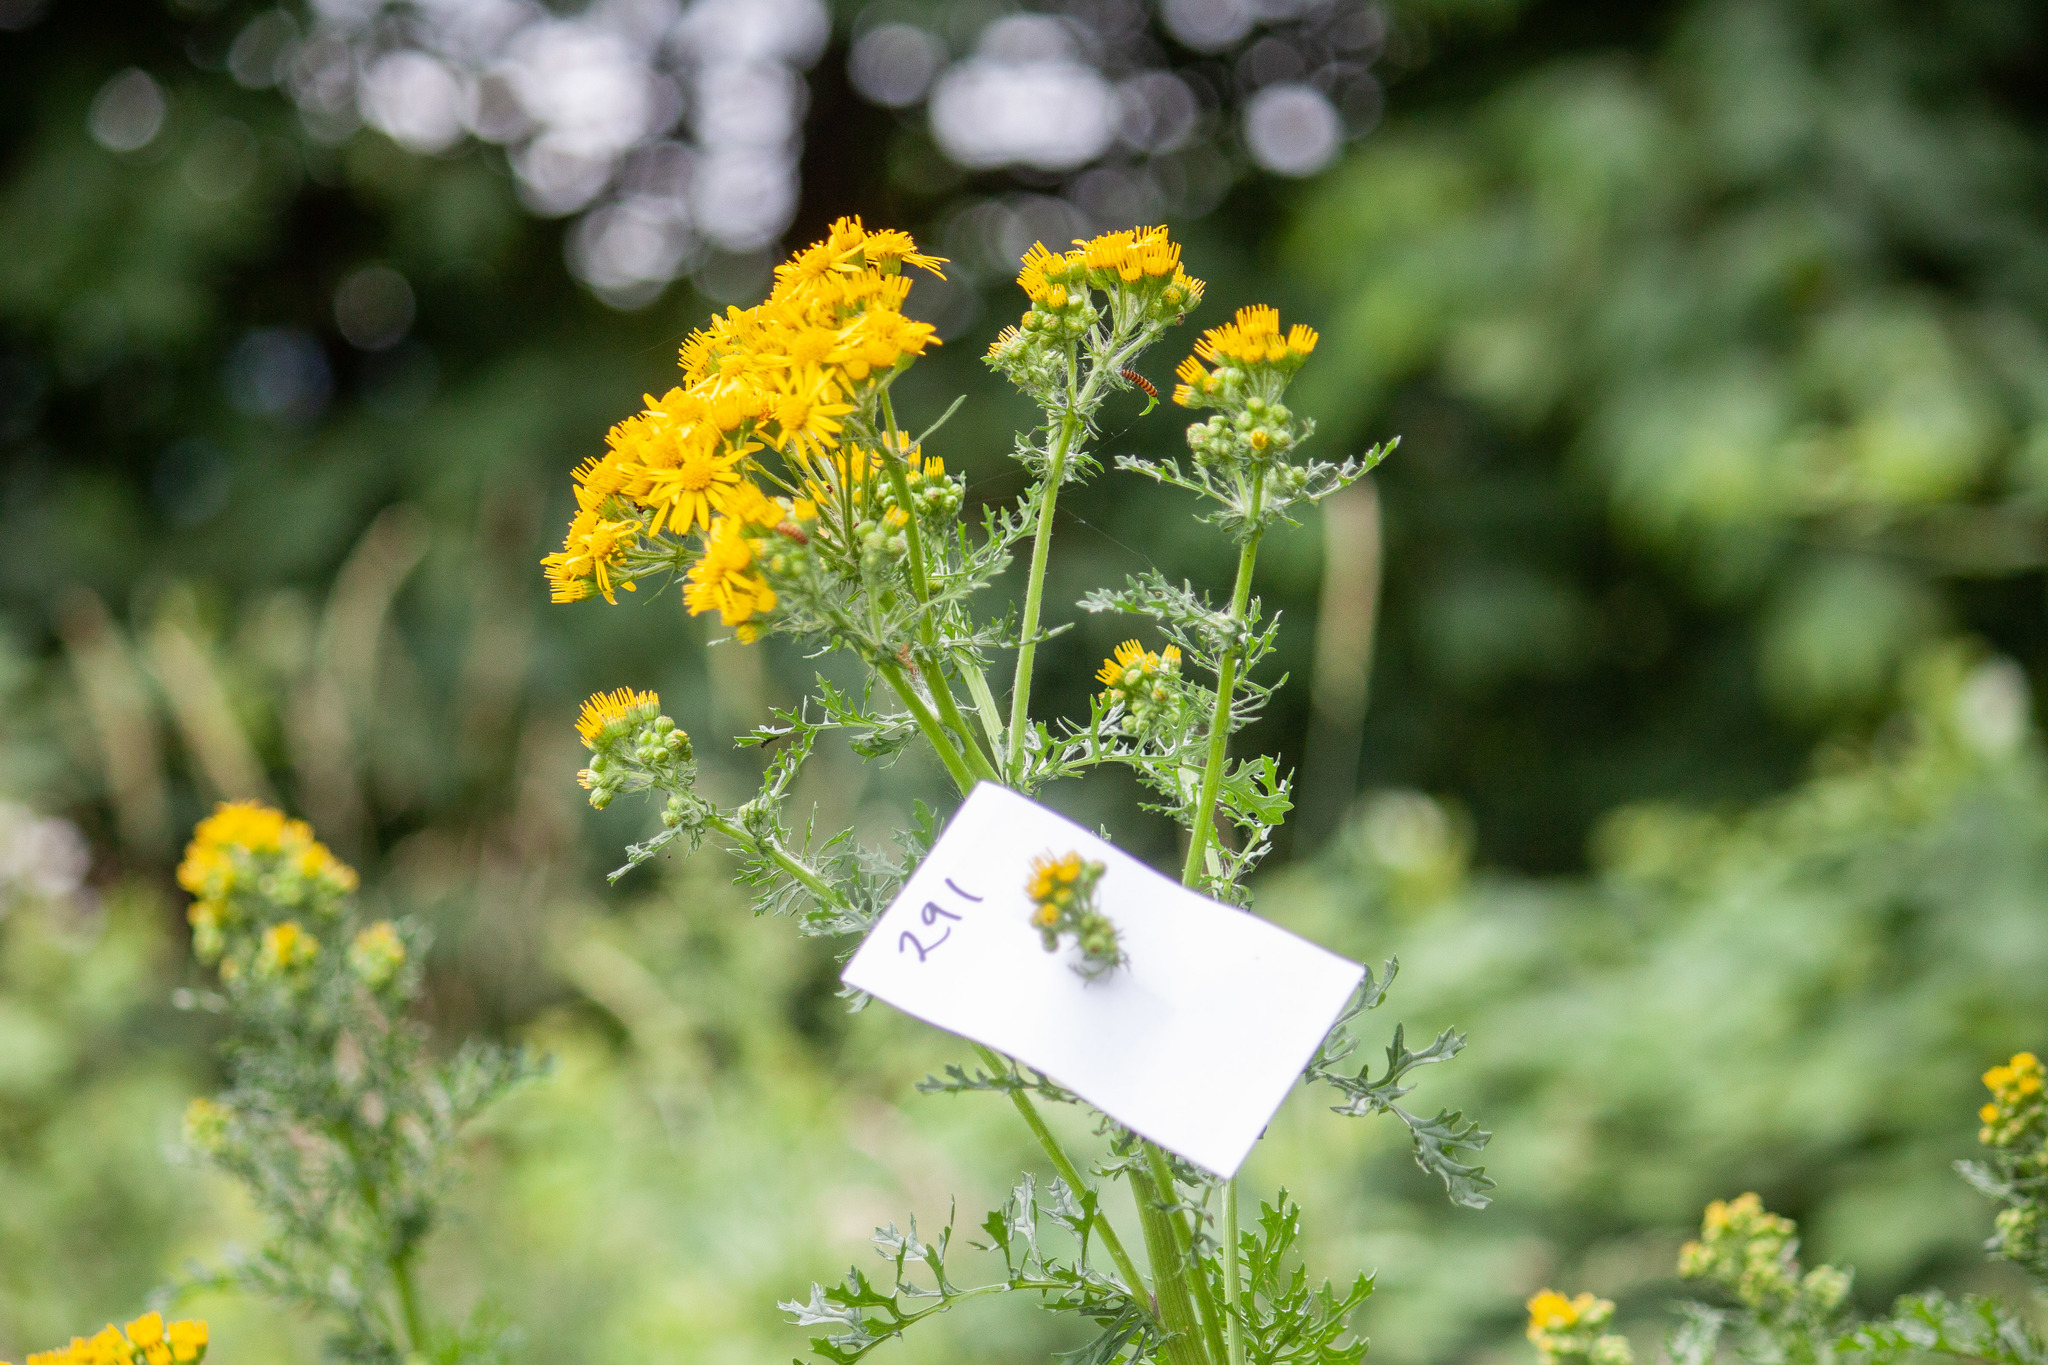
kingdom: Plantae
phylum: Tracheophyta
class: Magnoliopsida
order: Asterales
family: Asteraceae
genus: Jacobaea
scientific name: Jacobaea vulgaris
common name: Stinking willie
